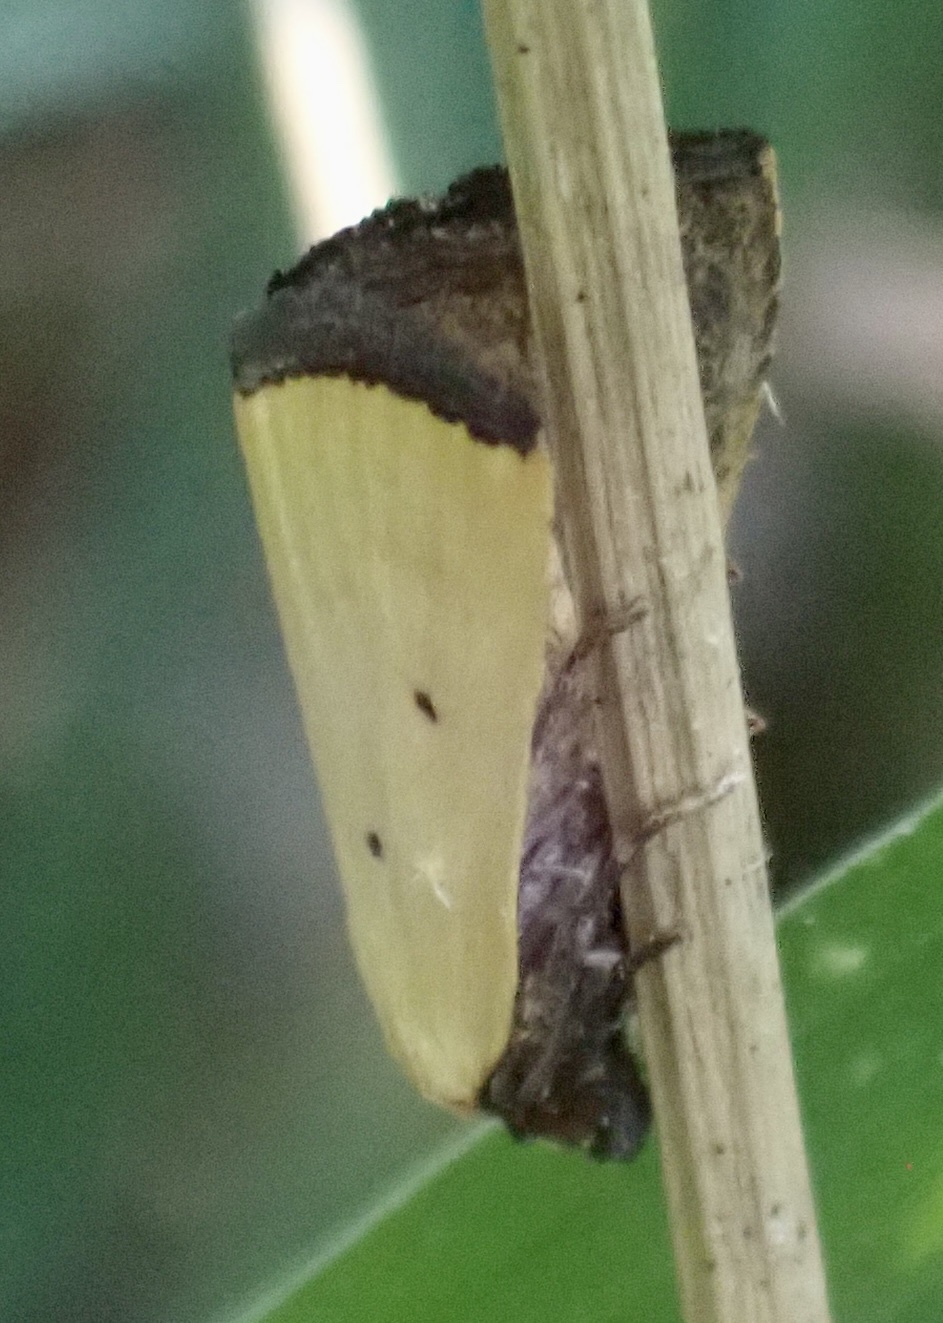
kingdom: Animalia
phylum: Arthropoda
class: Insecta
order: Lepidoptera
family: Noctuidae
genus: Marimatha
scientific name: Marimatha nigrofimbria
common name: Black-bordered lemon moth
